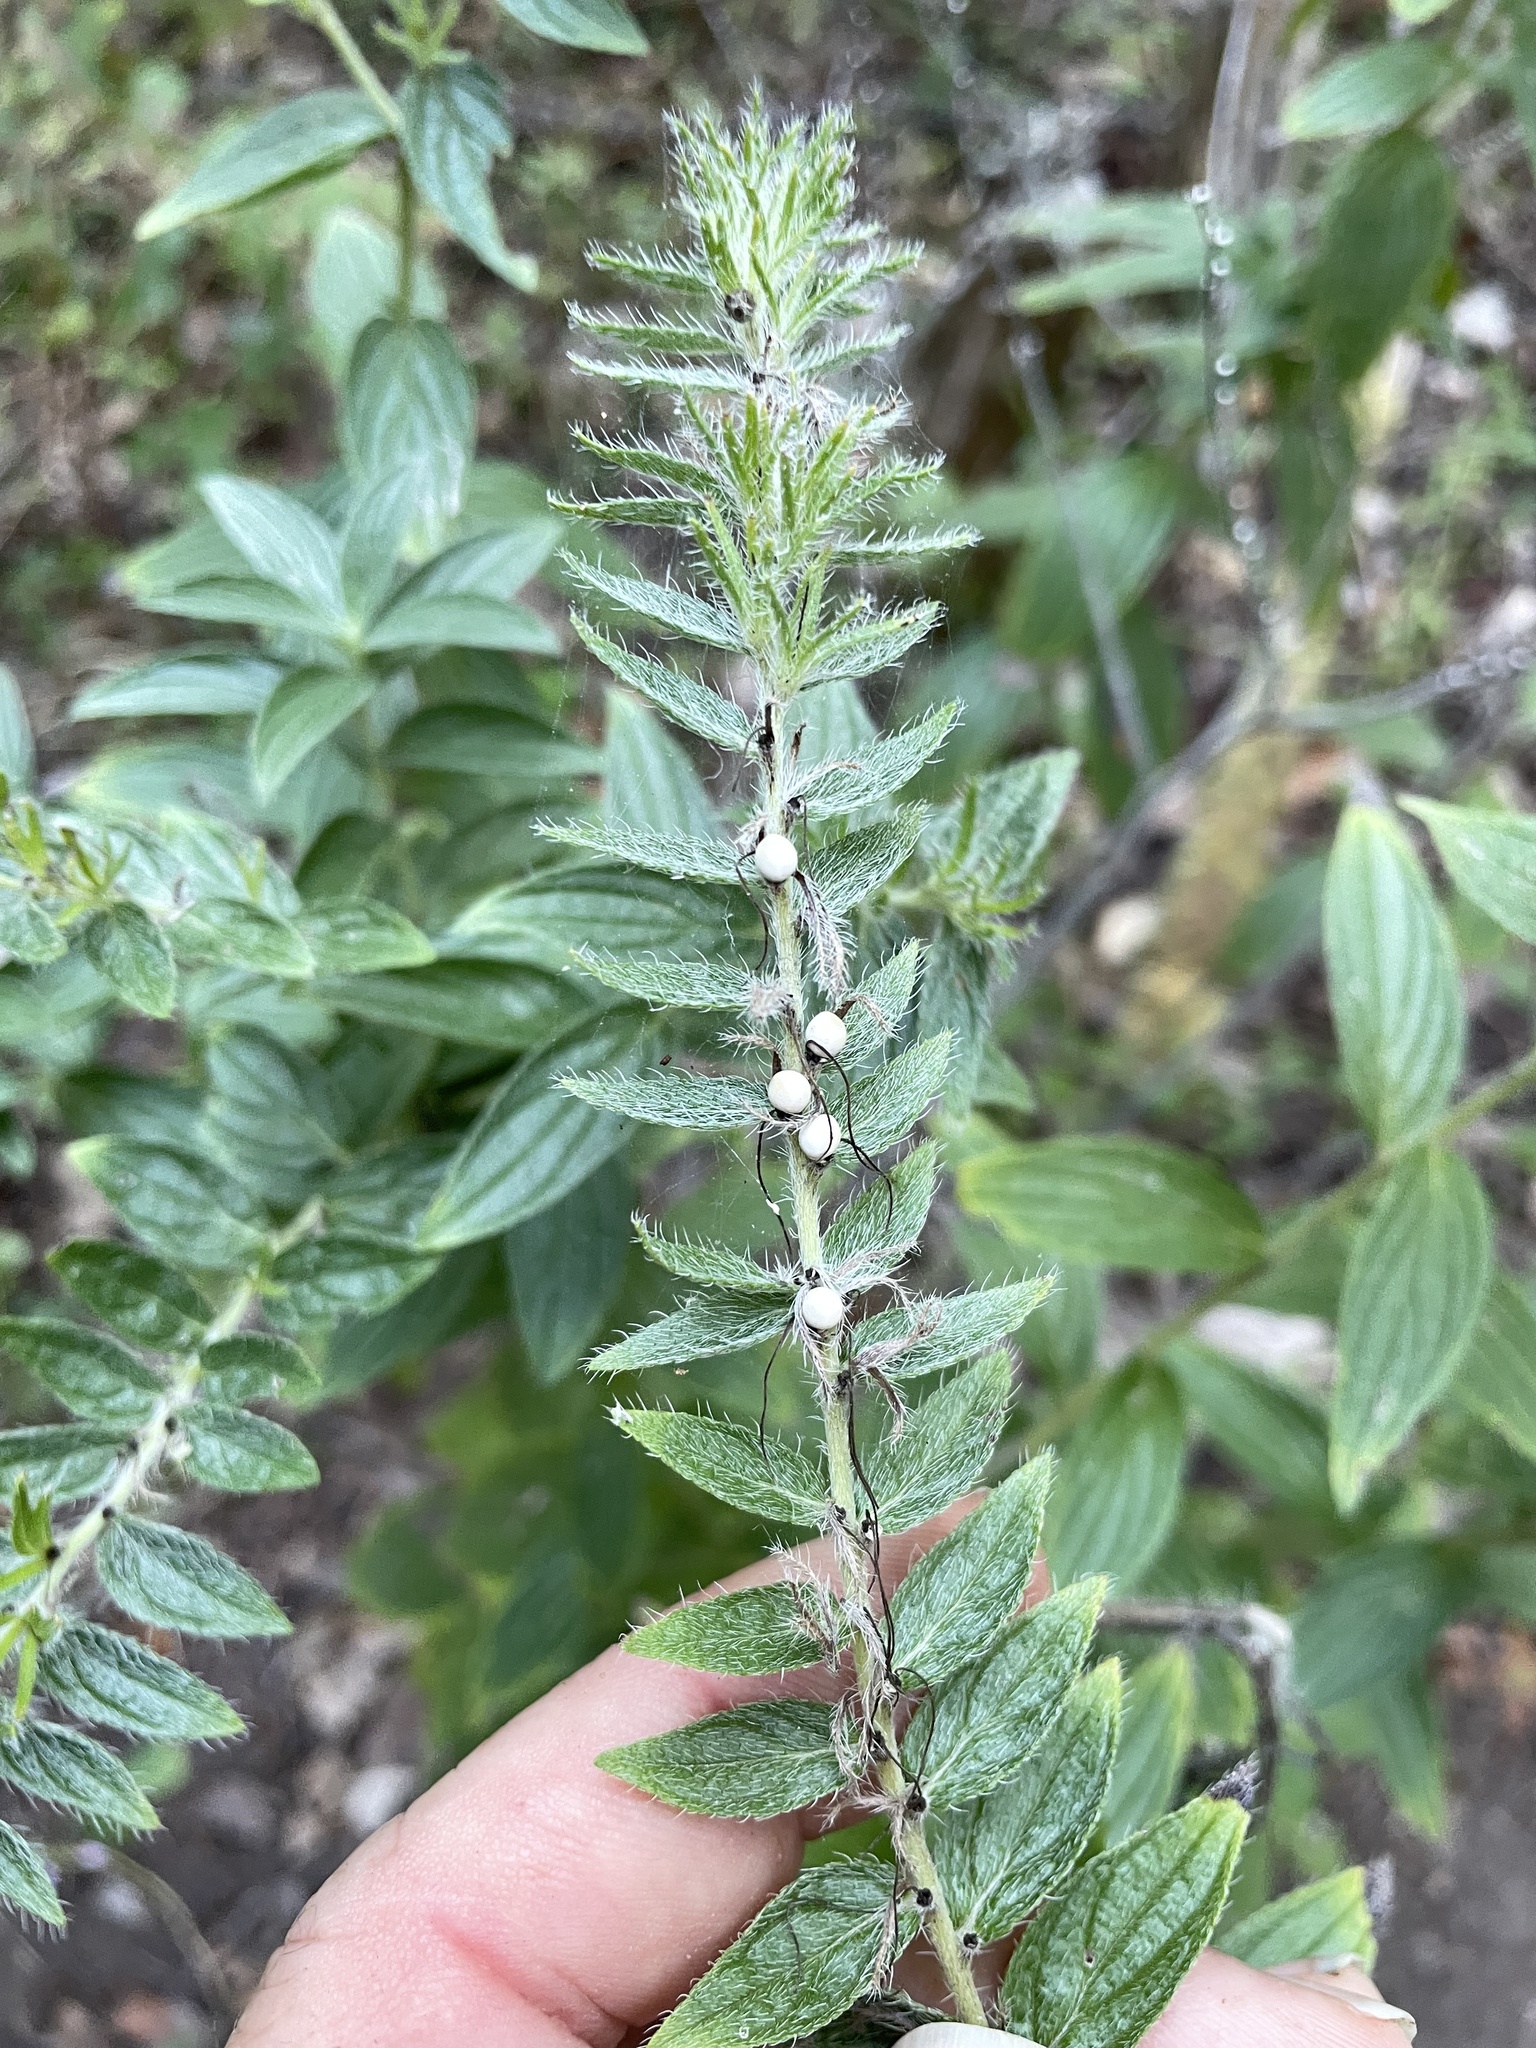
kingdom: Plantae
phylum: Tracheophyta
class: Magnoliopsida
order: Boraginales
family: Boraginaceae
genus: Lithospermum
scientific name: Lithospermum caroliniense
